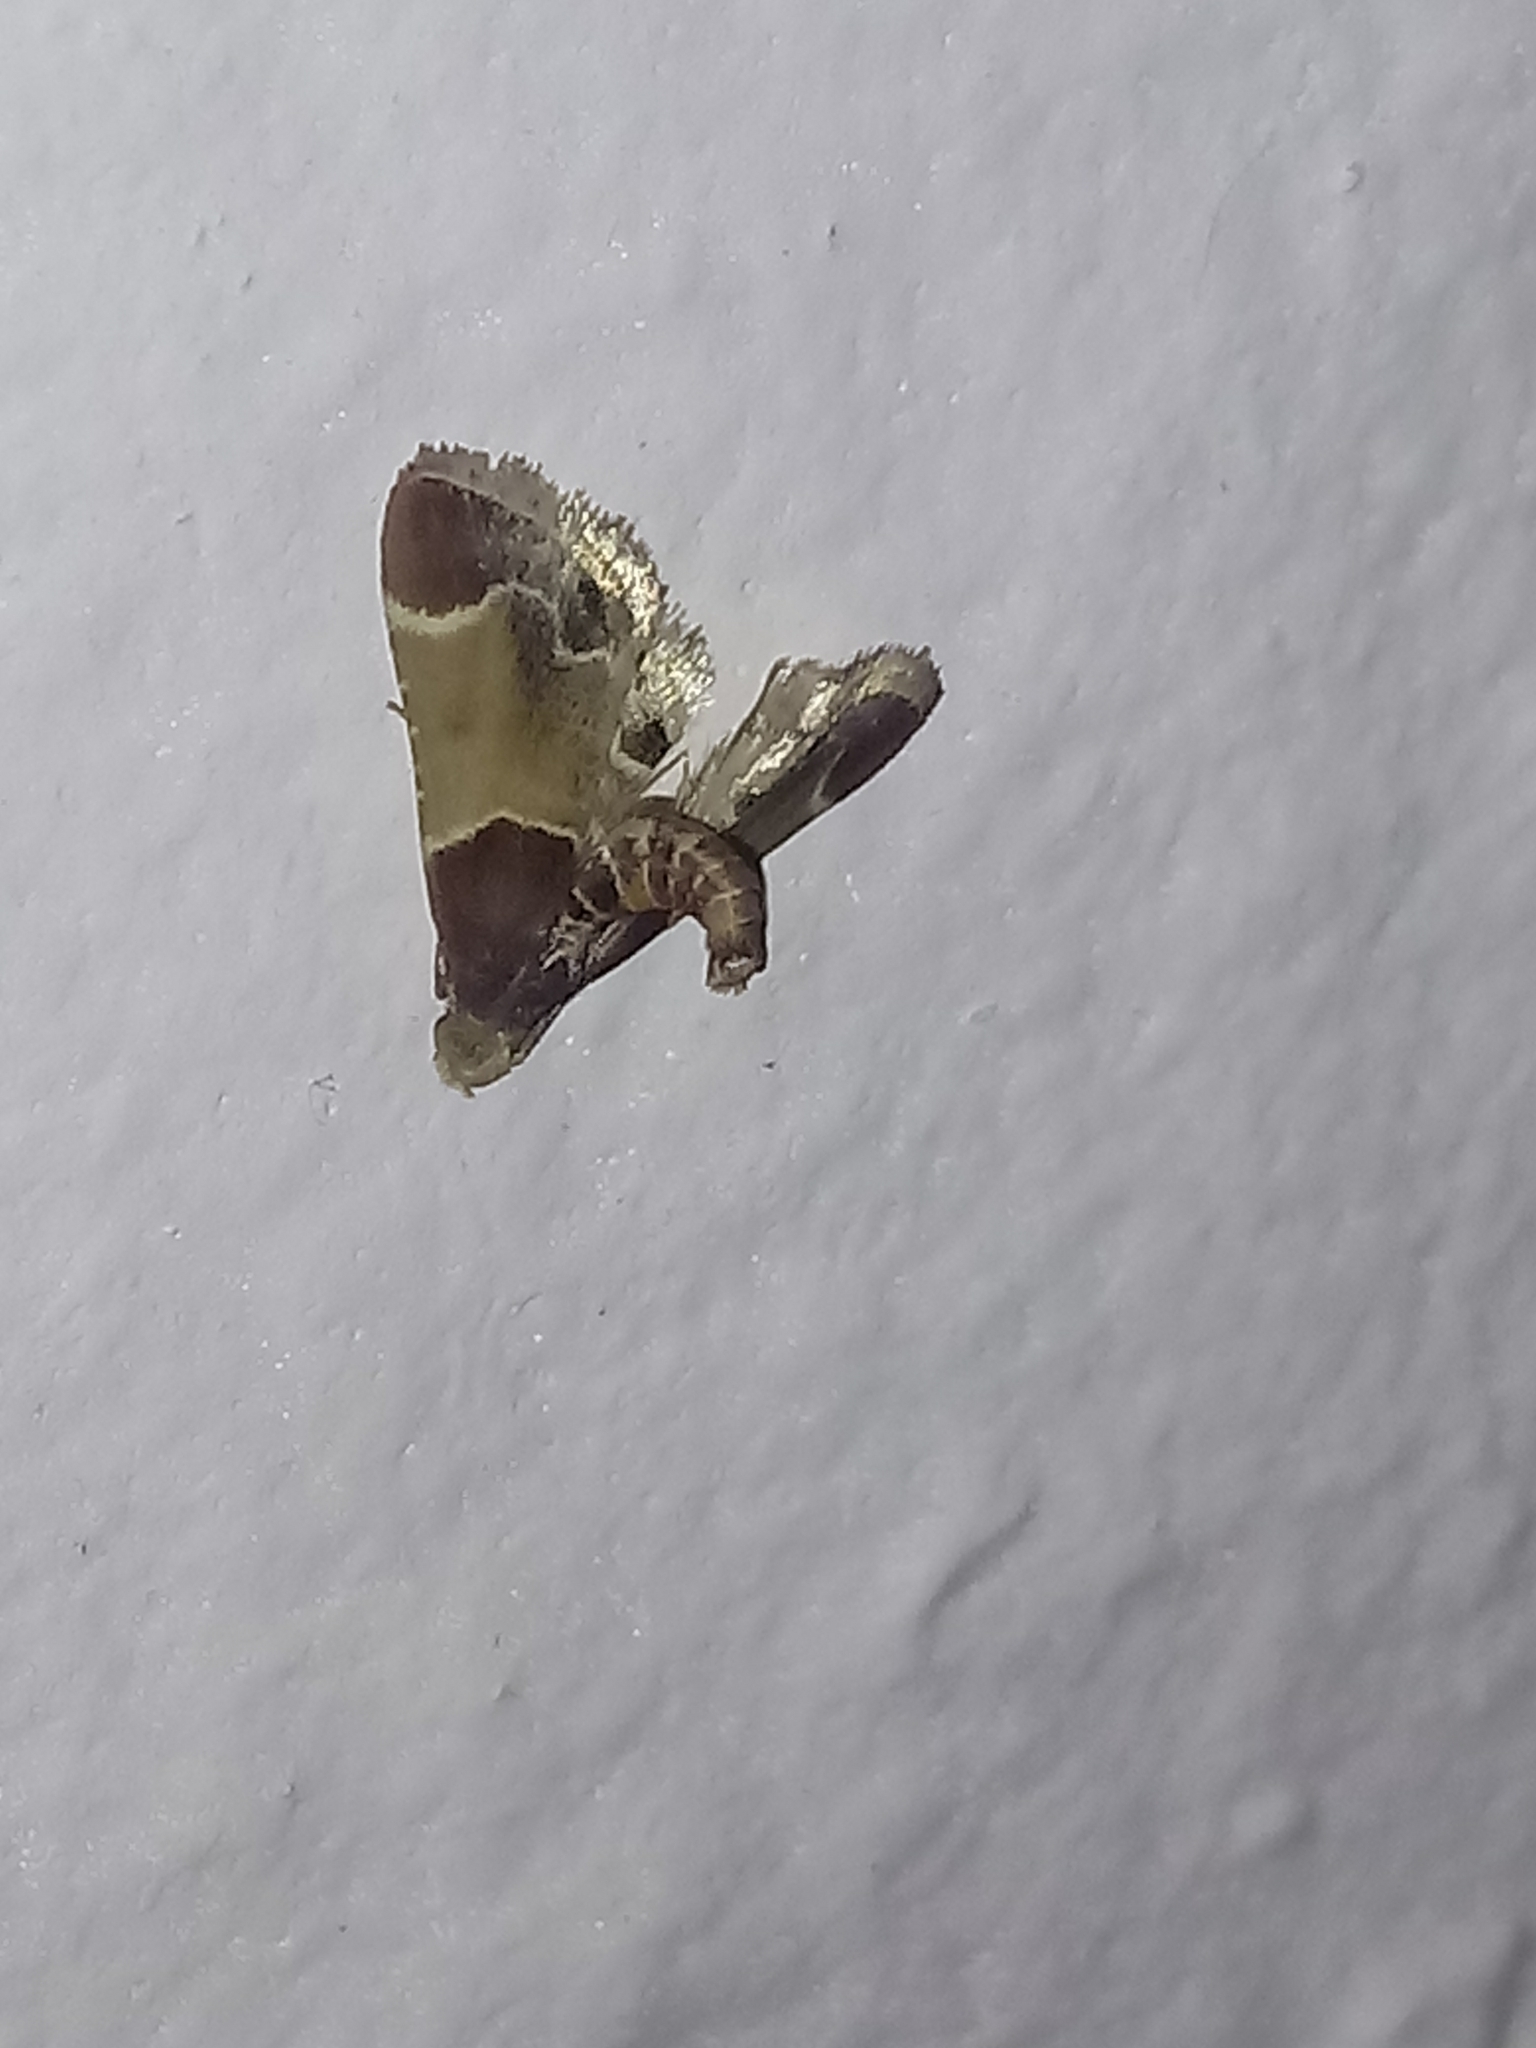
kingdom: Animalia
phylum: Arthropoda
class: Insecta
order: Lepidoptera
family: Pyralidae
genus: Pyralis
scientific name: Pyralis farinalis
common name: Meal moth
